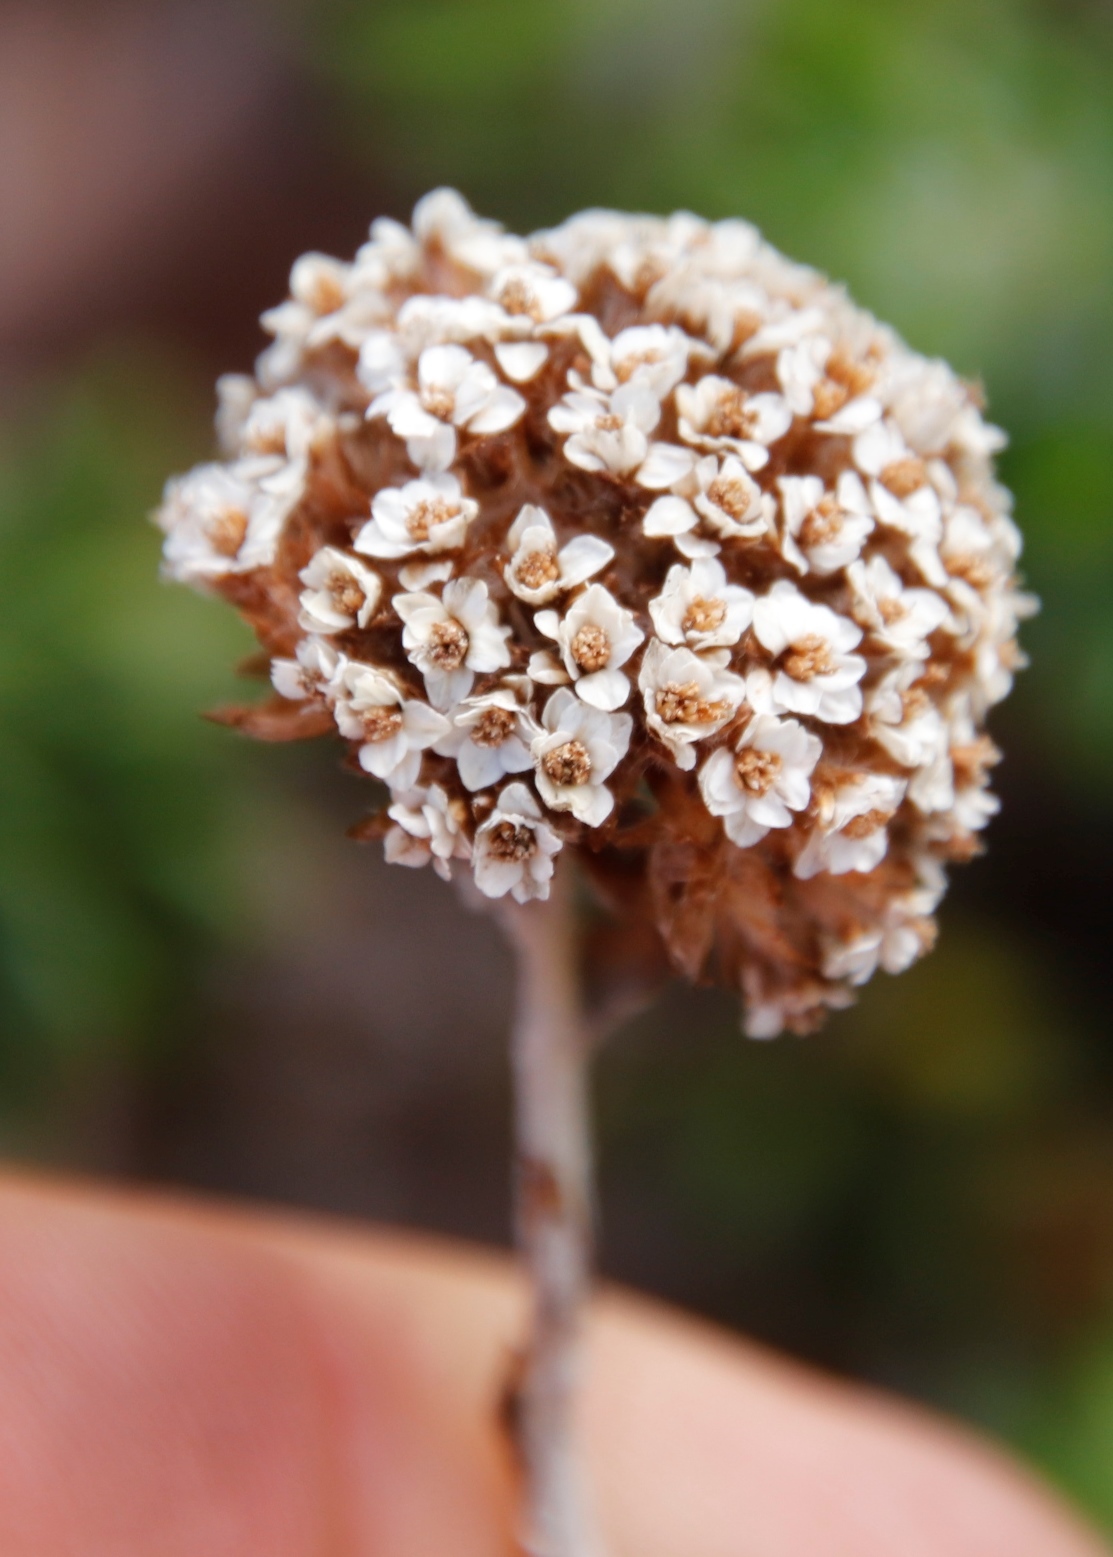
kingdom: Plantae
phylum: Tracheophyta
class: Magnoliopsida
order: Asterales
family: Asteraceae
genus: Anaxeton
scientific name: Anaxeton arborescens
